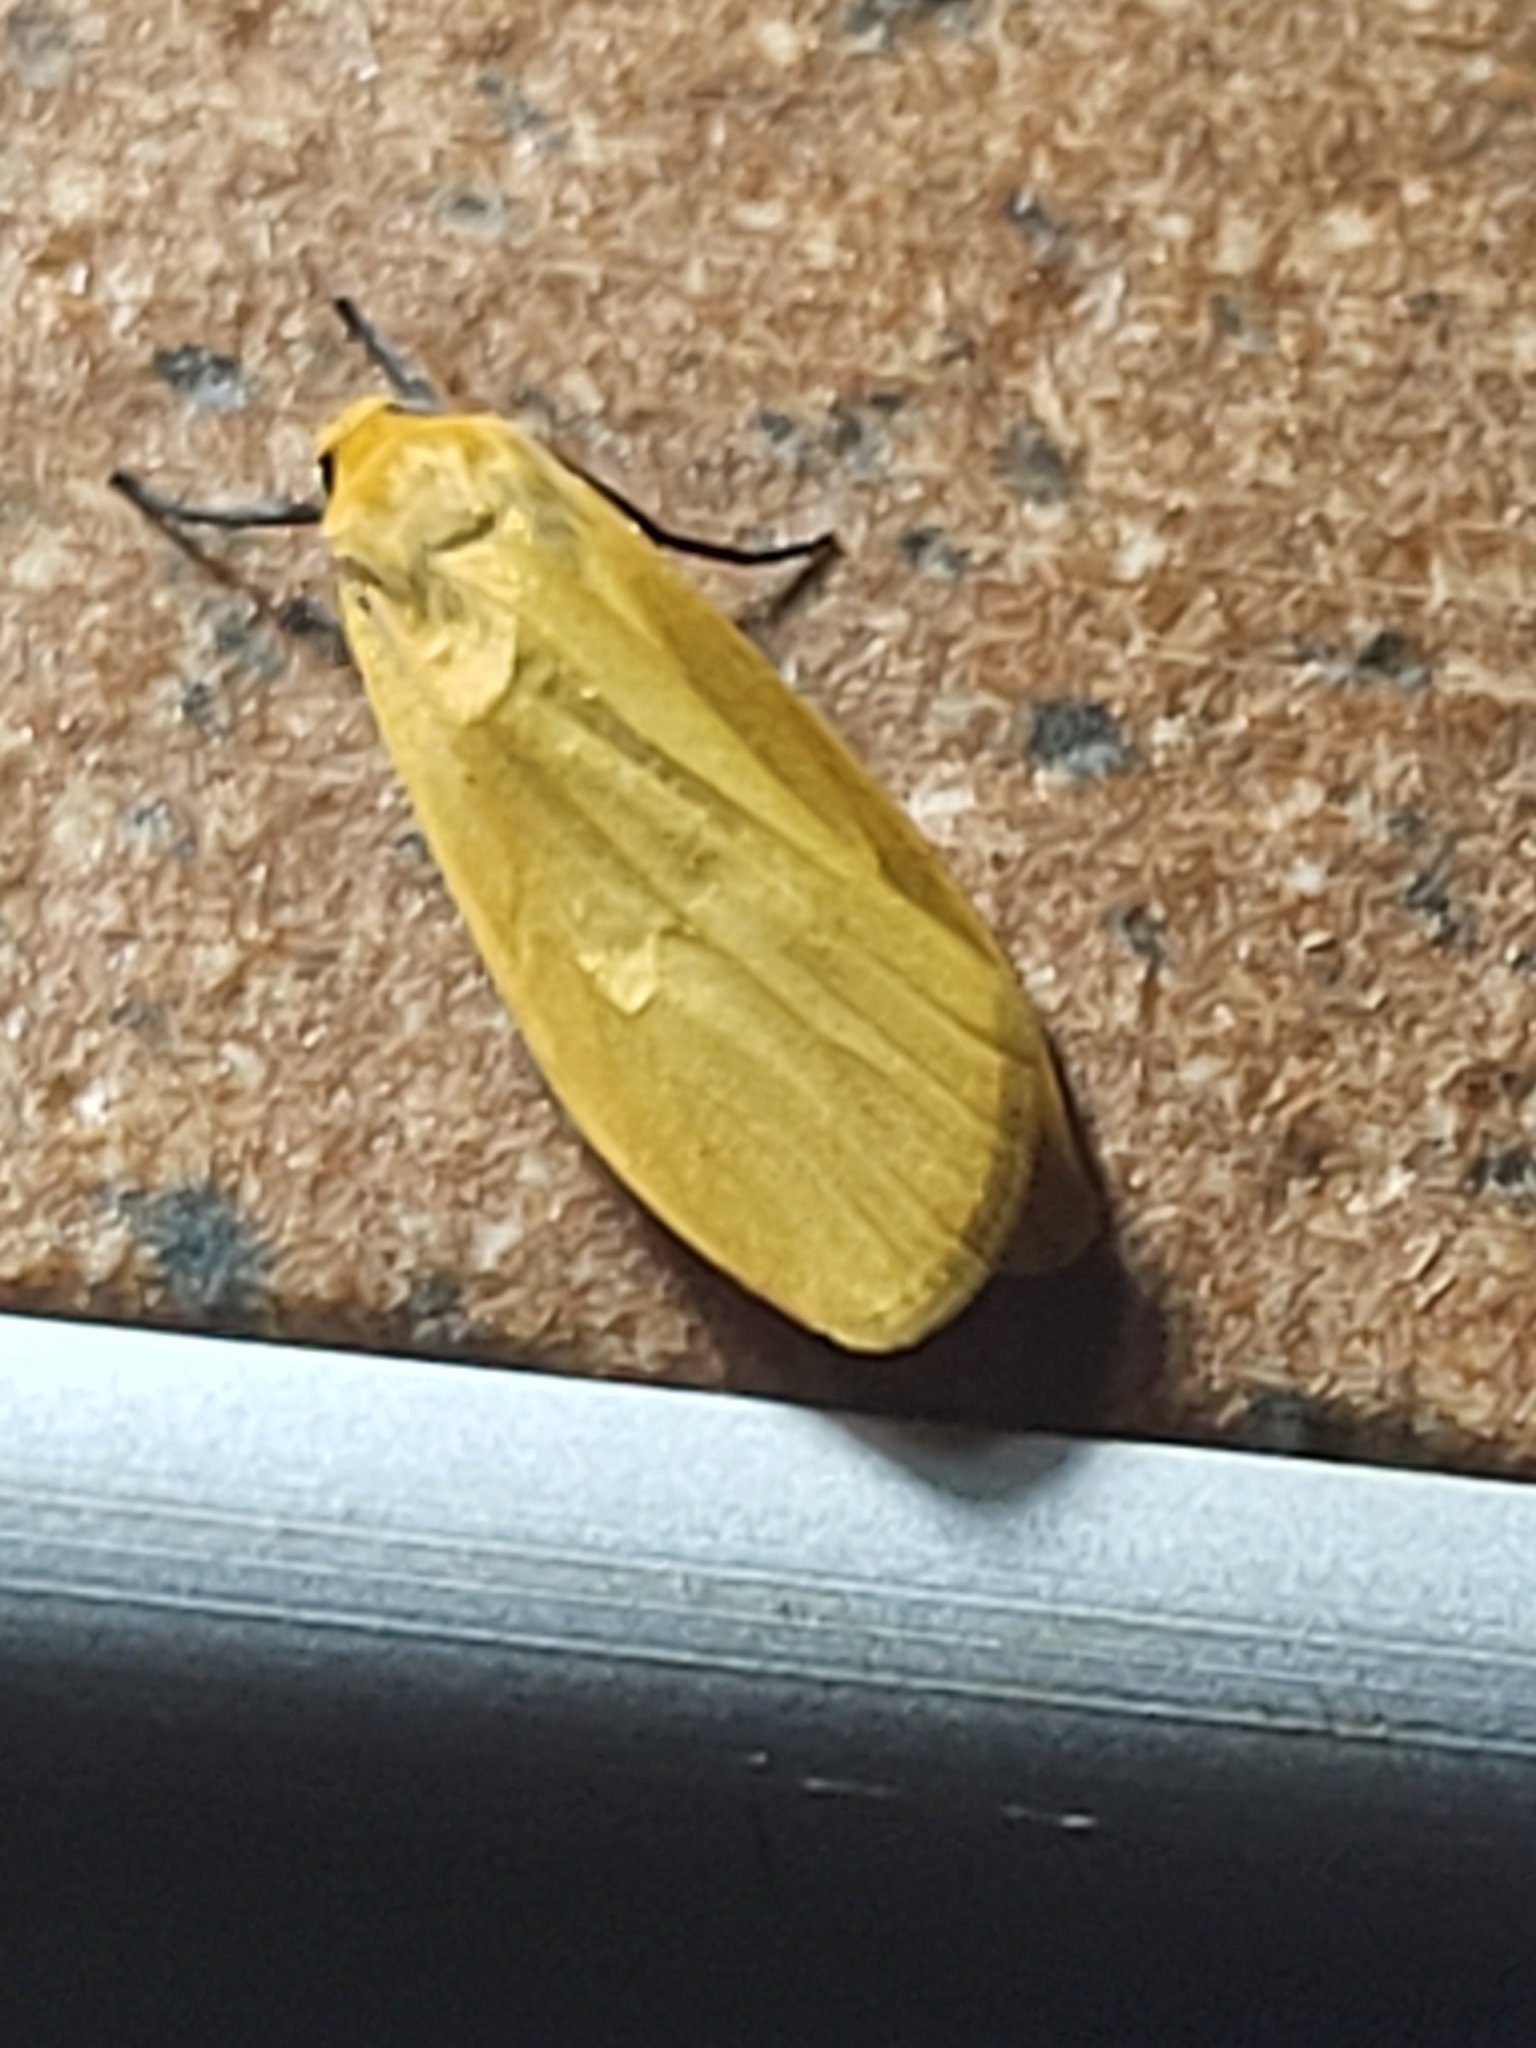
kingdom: Animalia
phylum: Arthropoda
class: Insecta
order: Lepidoptera
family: Erebidae
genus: Wittia
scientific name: Wittia sororcula
